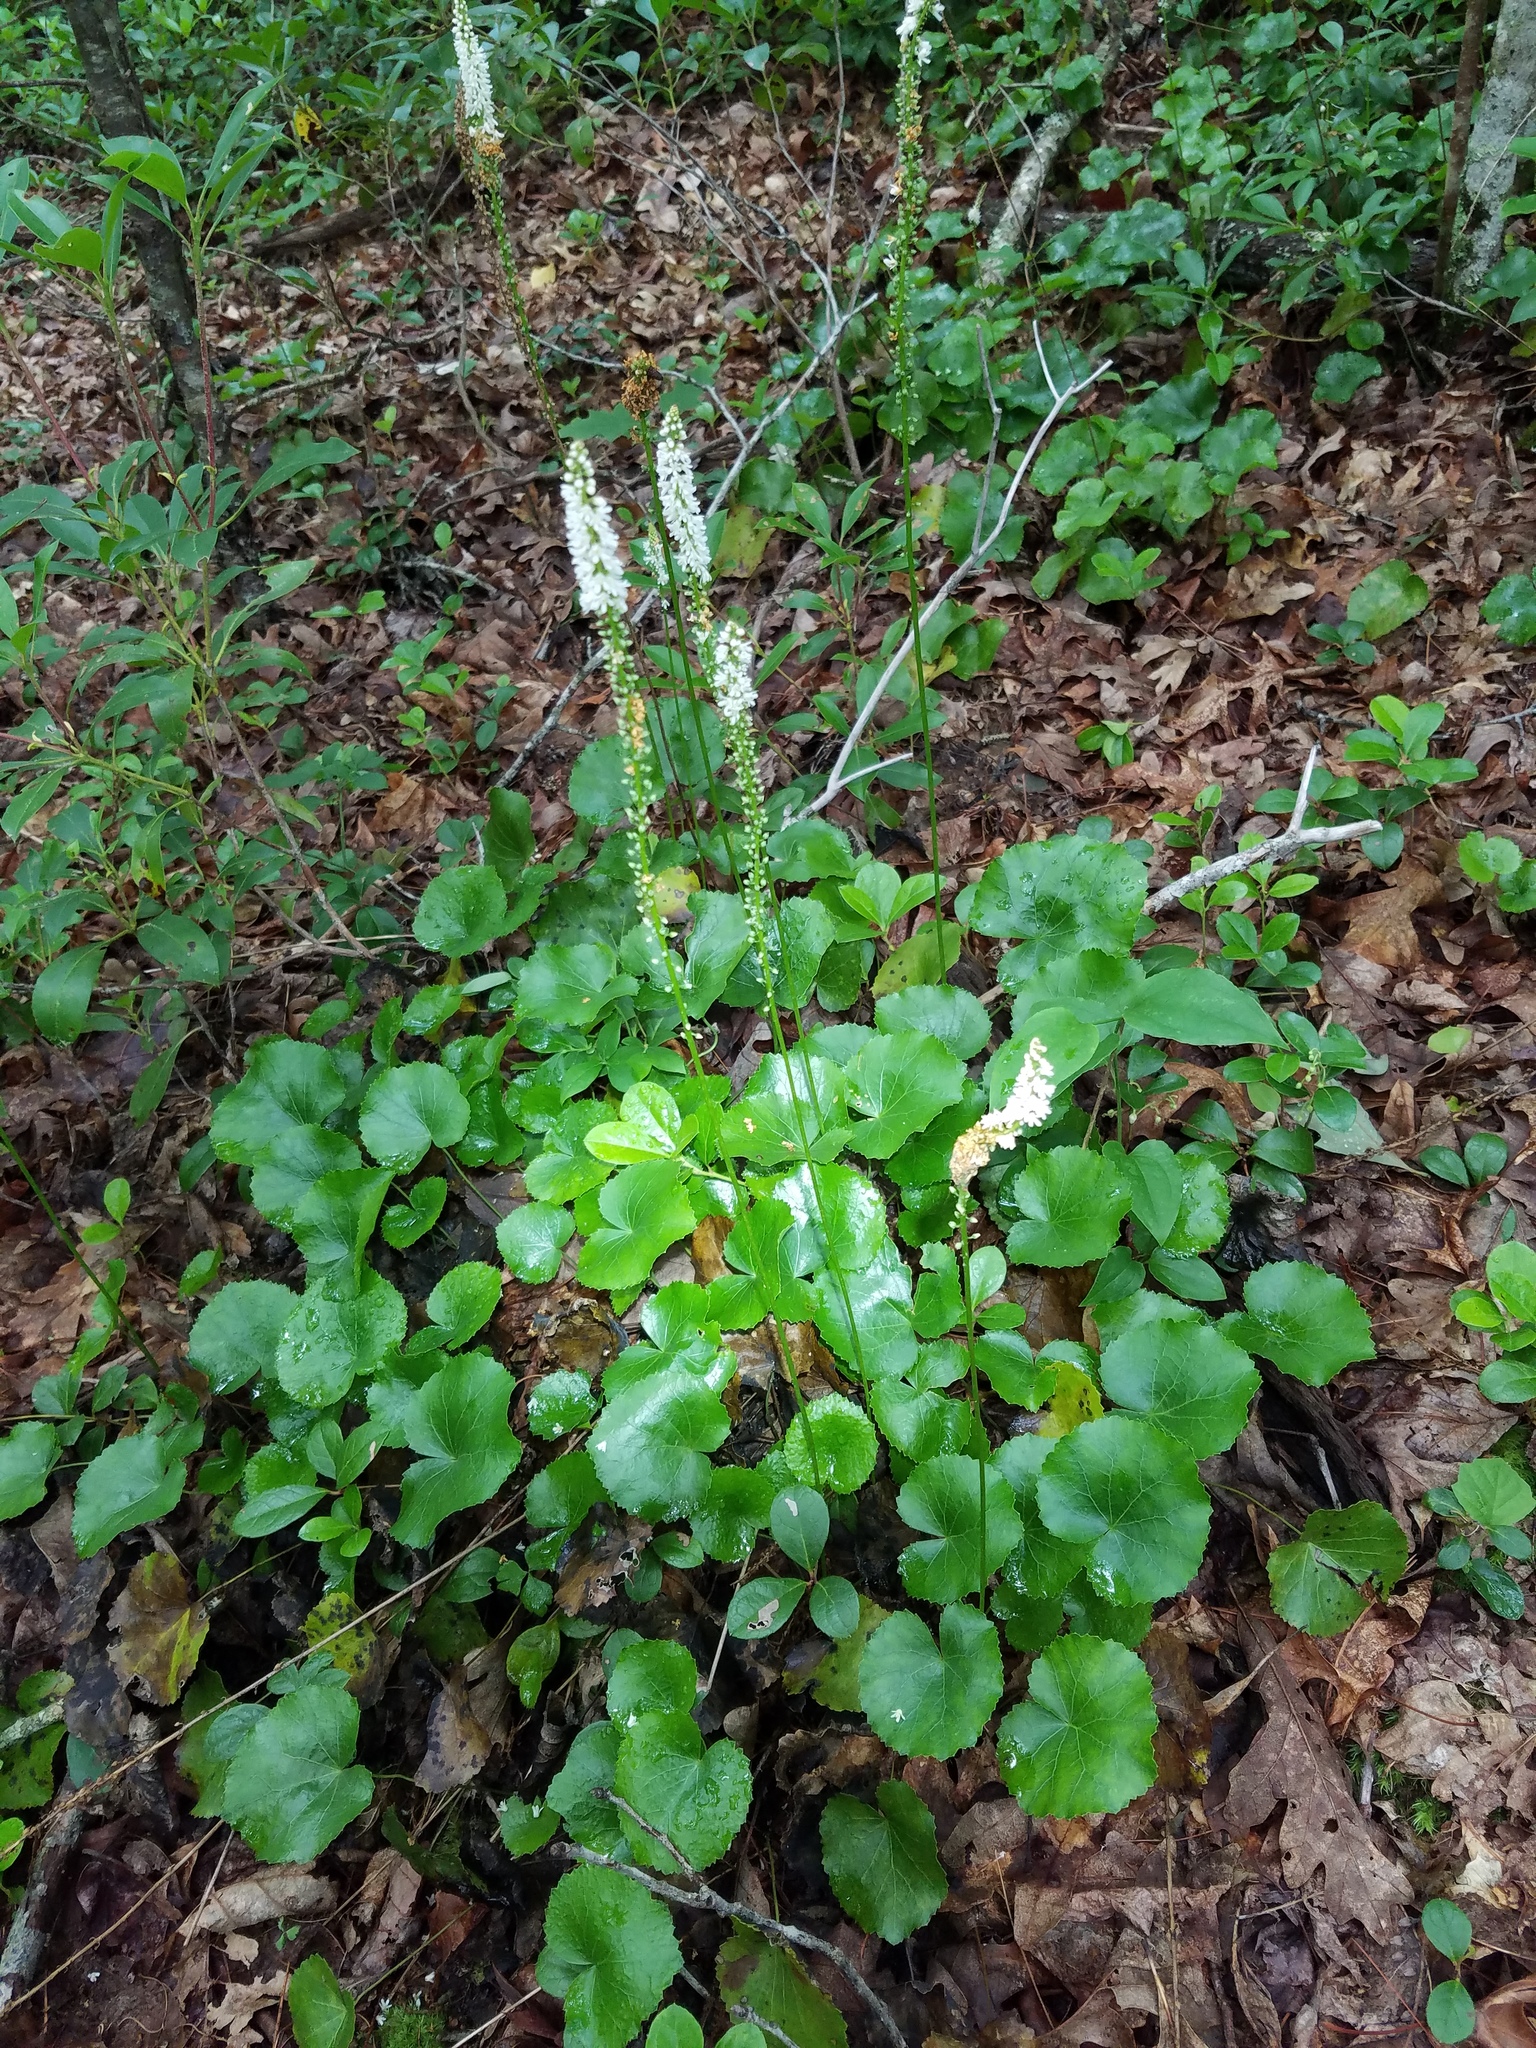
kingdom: Plantae
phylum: Tracheophyta
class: Magnoliopsida
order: Ericales
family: Diapensiaceae
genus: Galax
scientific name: Galax urceolata
